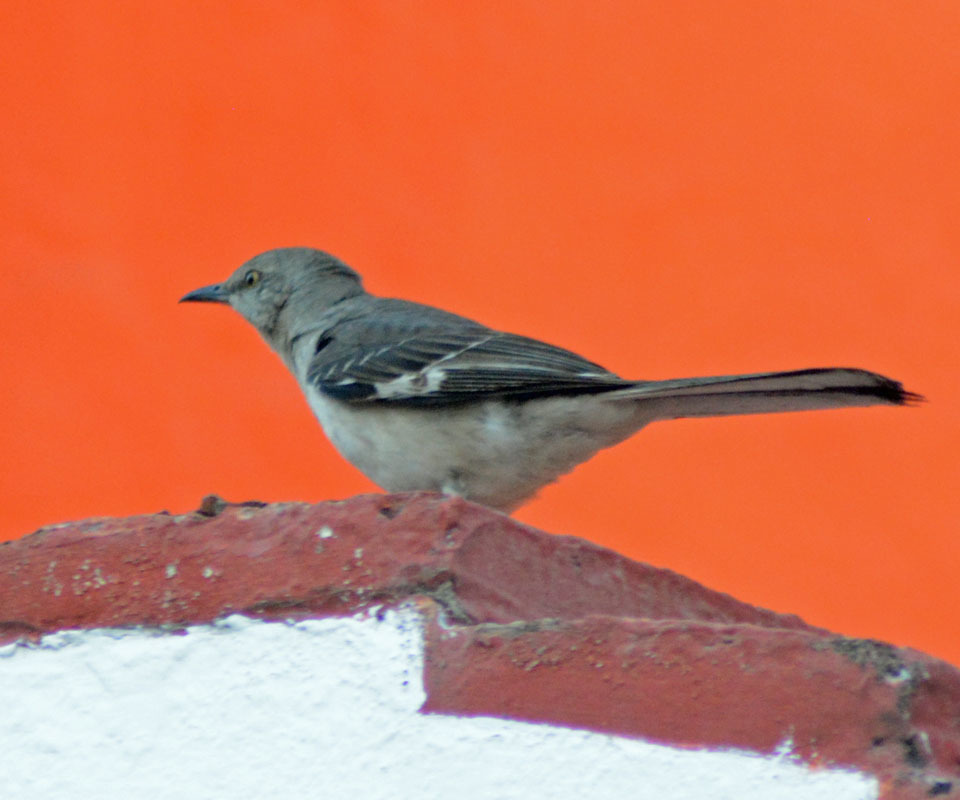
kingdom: Animalia
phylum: Chordata
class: Aves
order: Passeriformes
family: Mimidae
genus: Mimus
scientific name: Mimus polyglottos
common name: Northern mockingbird
